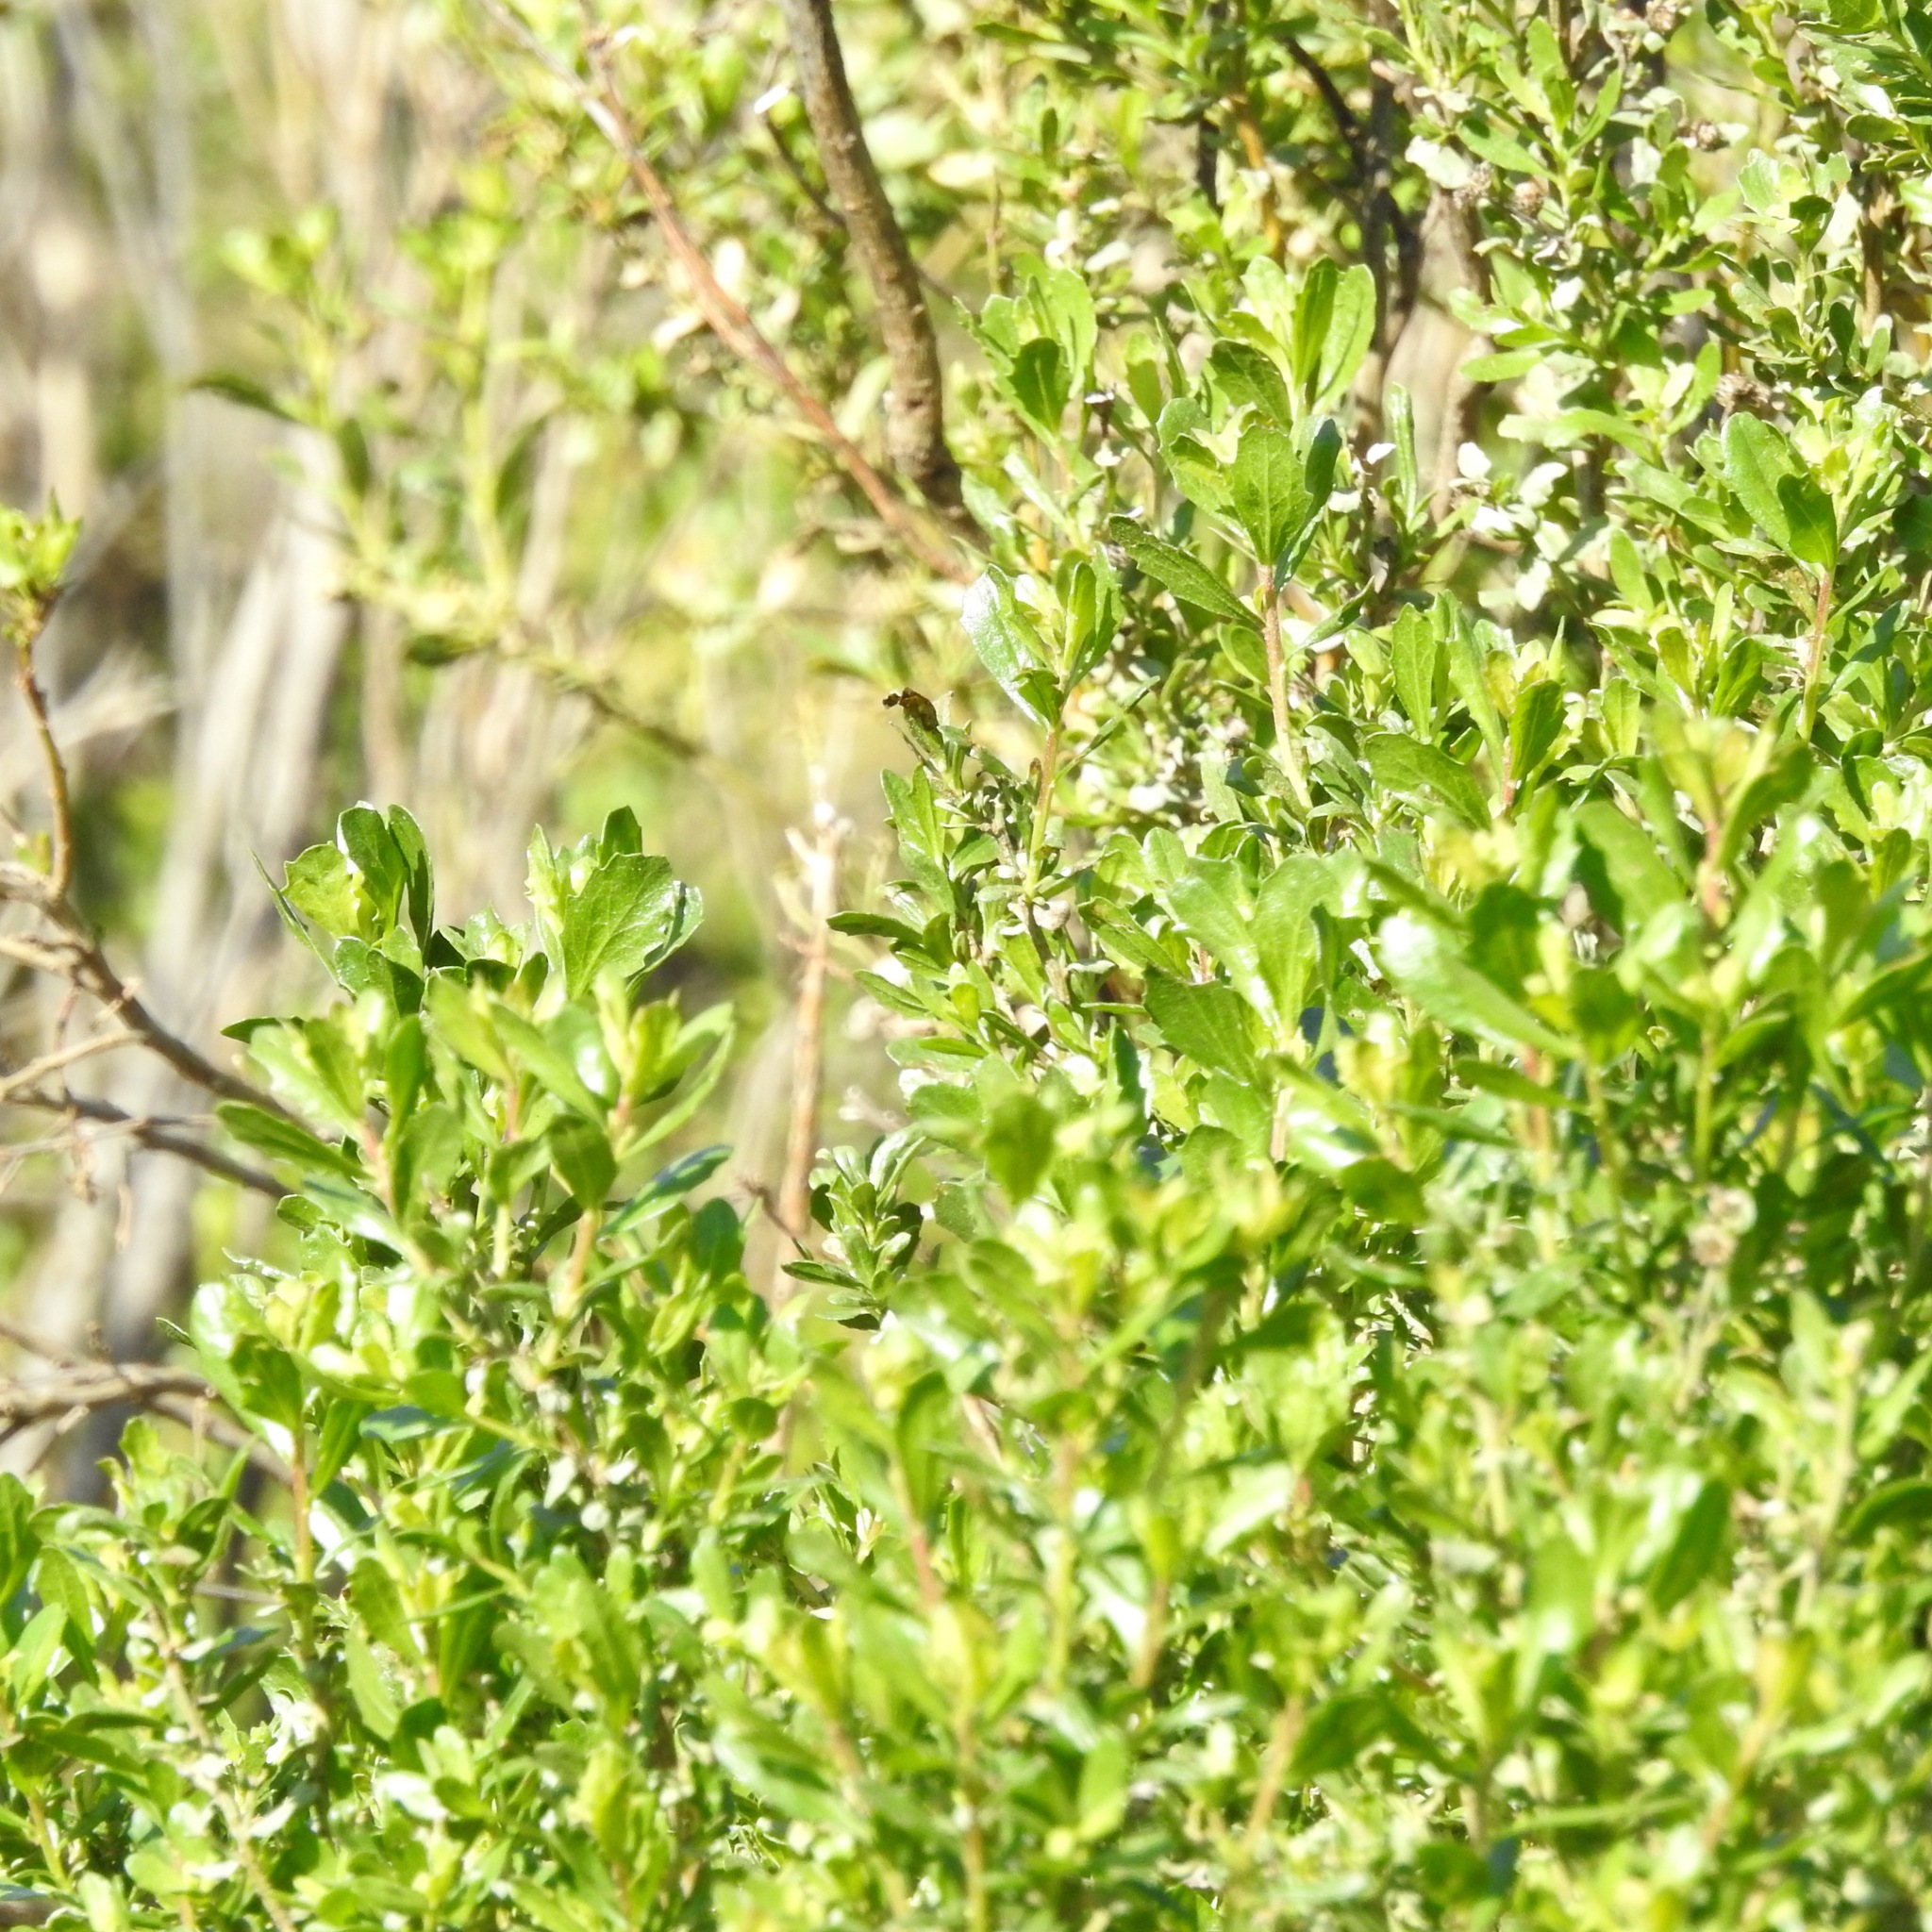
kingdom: Plantae
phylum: Tracheophyta
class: Magnoliopsida
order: Asterales
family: Asteraceae
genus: Baccharis
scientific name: Baccharis pilularis
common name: Coyotebrush
